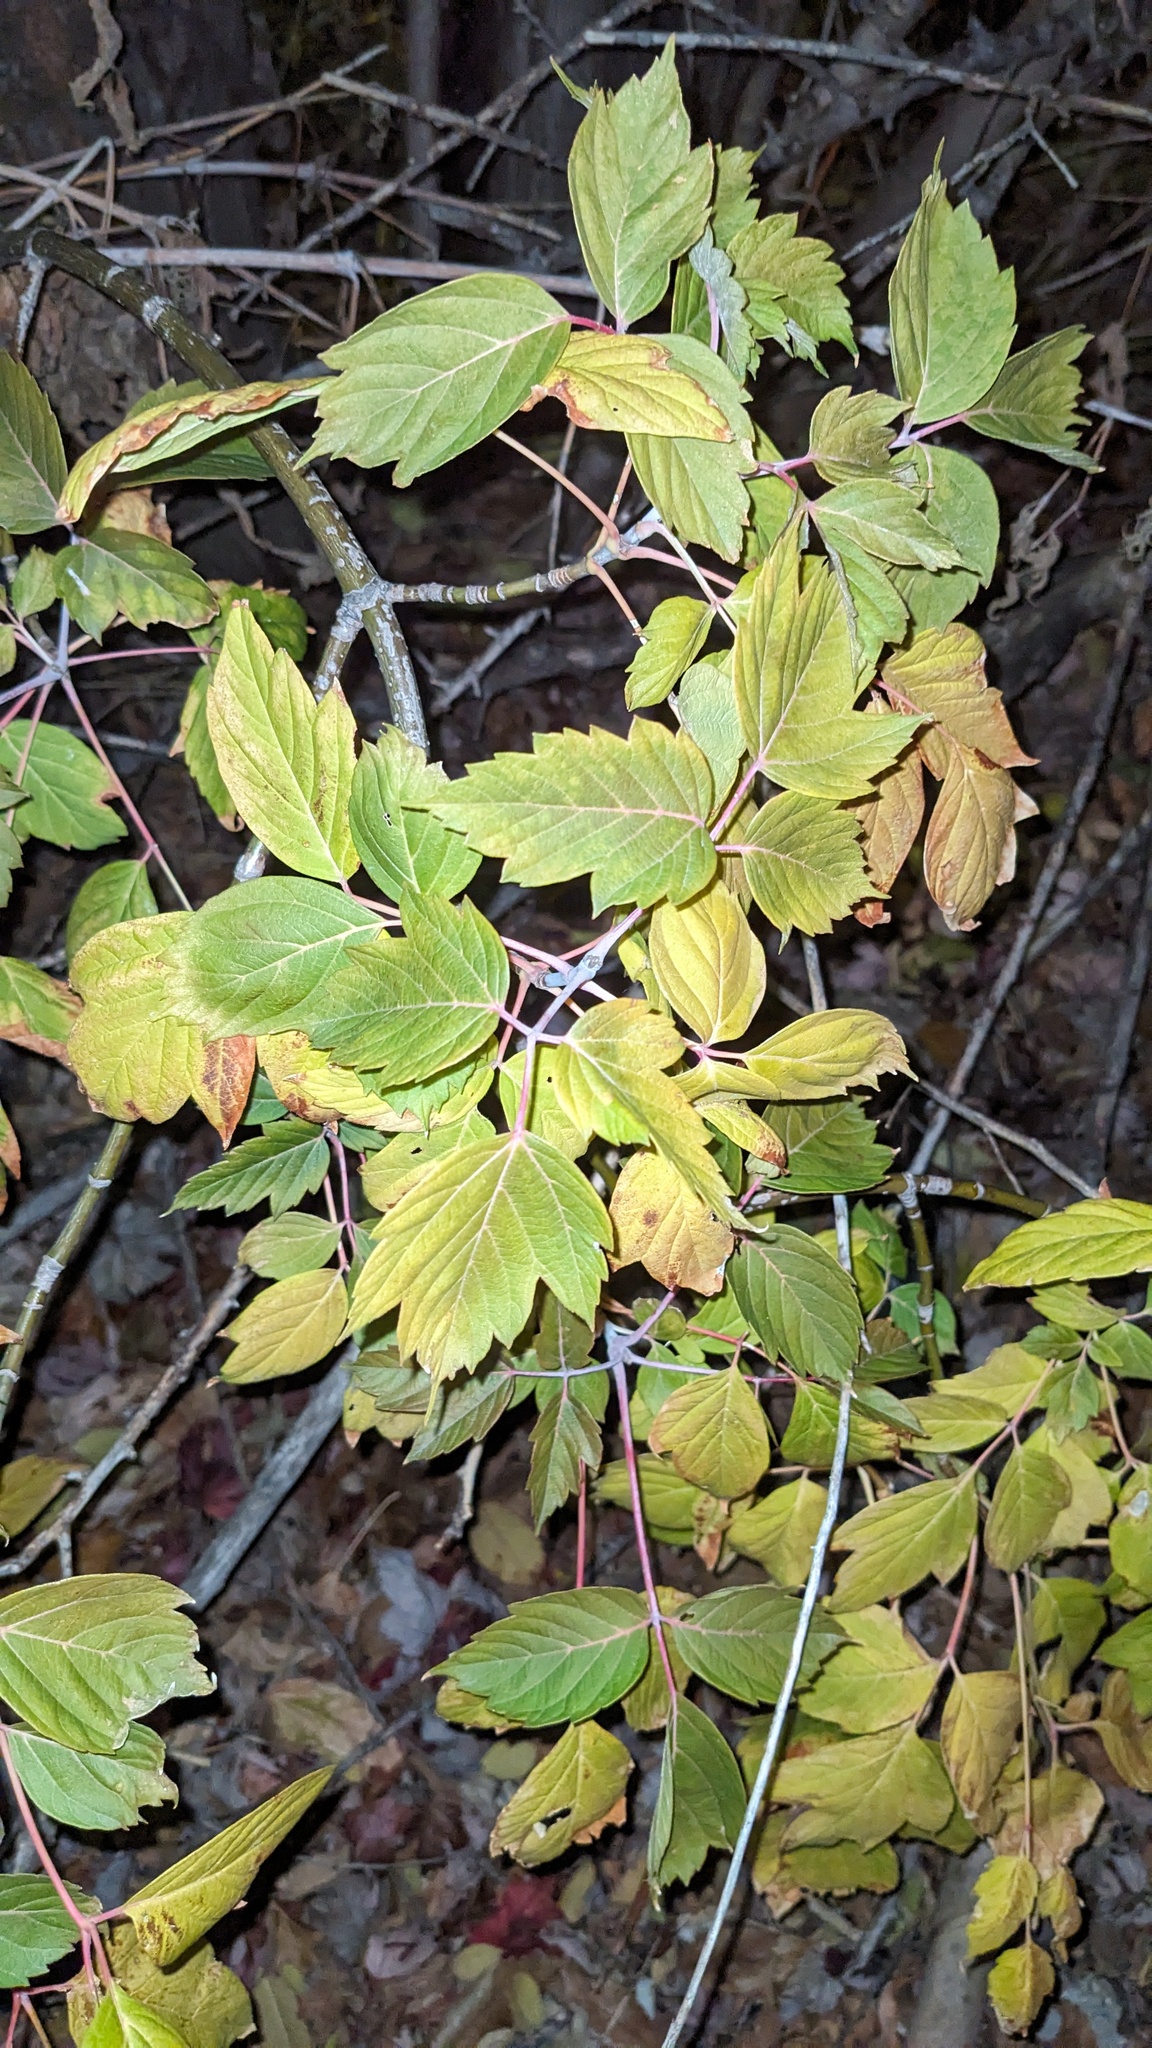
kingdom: Plantae
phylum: Tracheophyta
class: Magnoliopsida
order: Sapindales
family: Sapindaceae
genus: Acer
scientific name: Acer negundo
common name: Ashleaf maple
